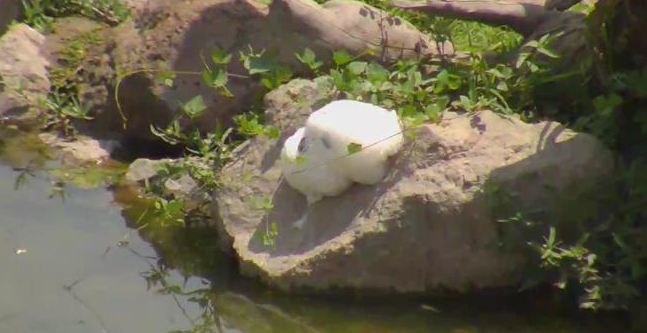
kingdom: Animalia
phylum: Chordata
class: Amphibia
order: Anura
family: Rhacophoridae
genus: Chiromantis
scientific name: Chiromantis xerampelina
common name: African gray treefrog
